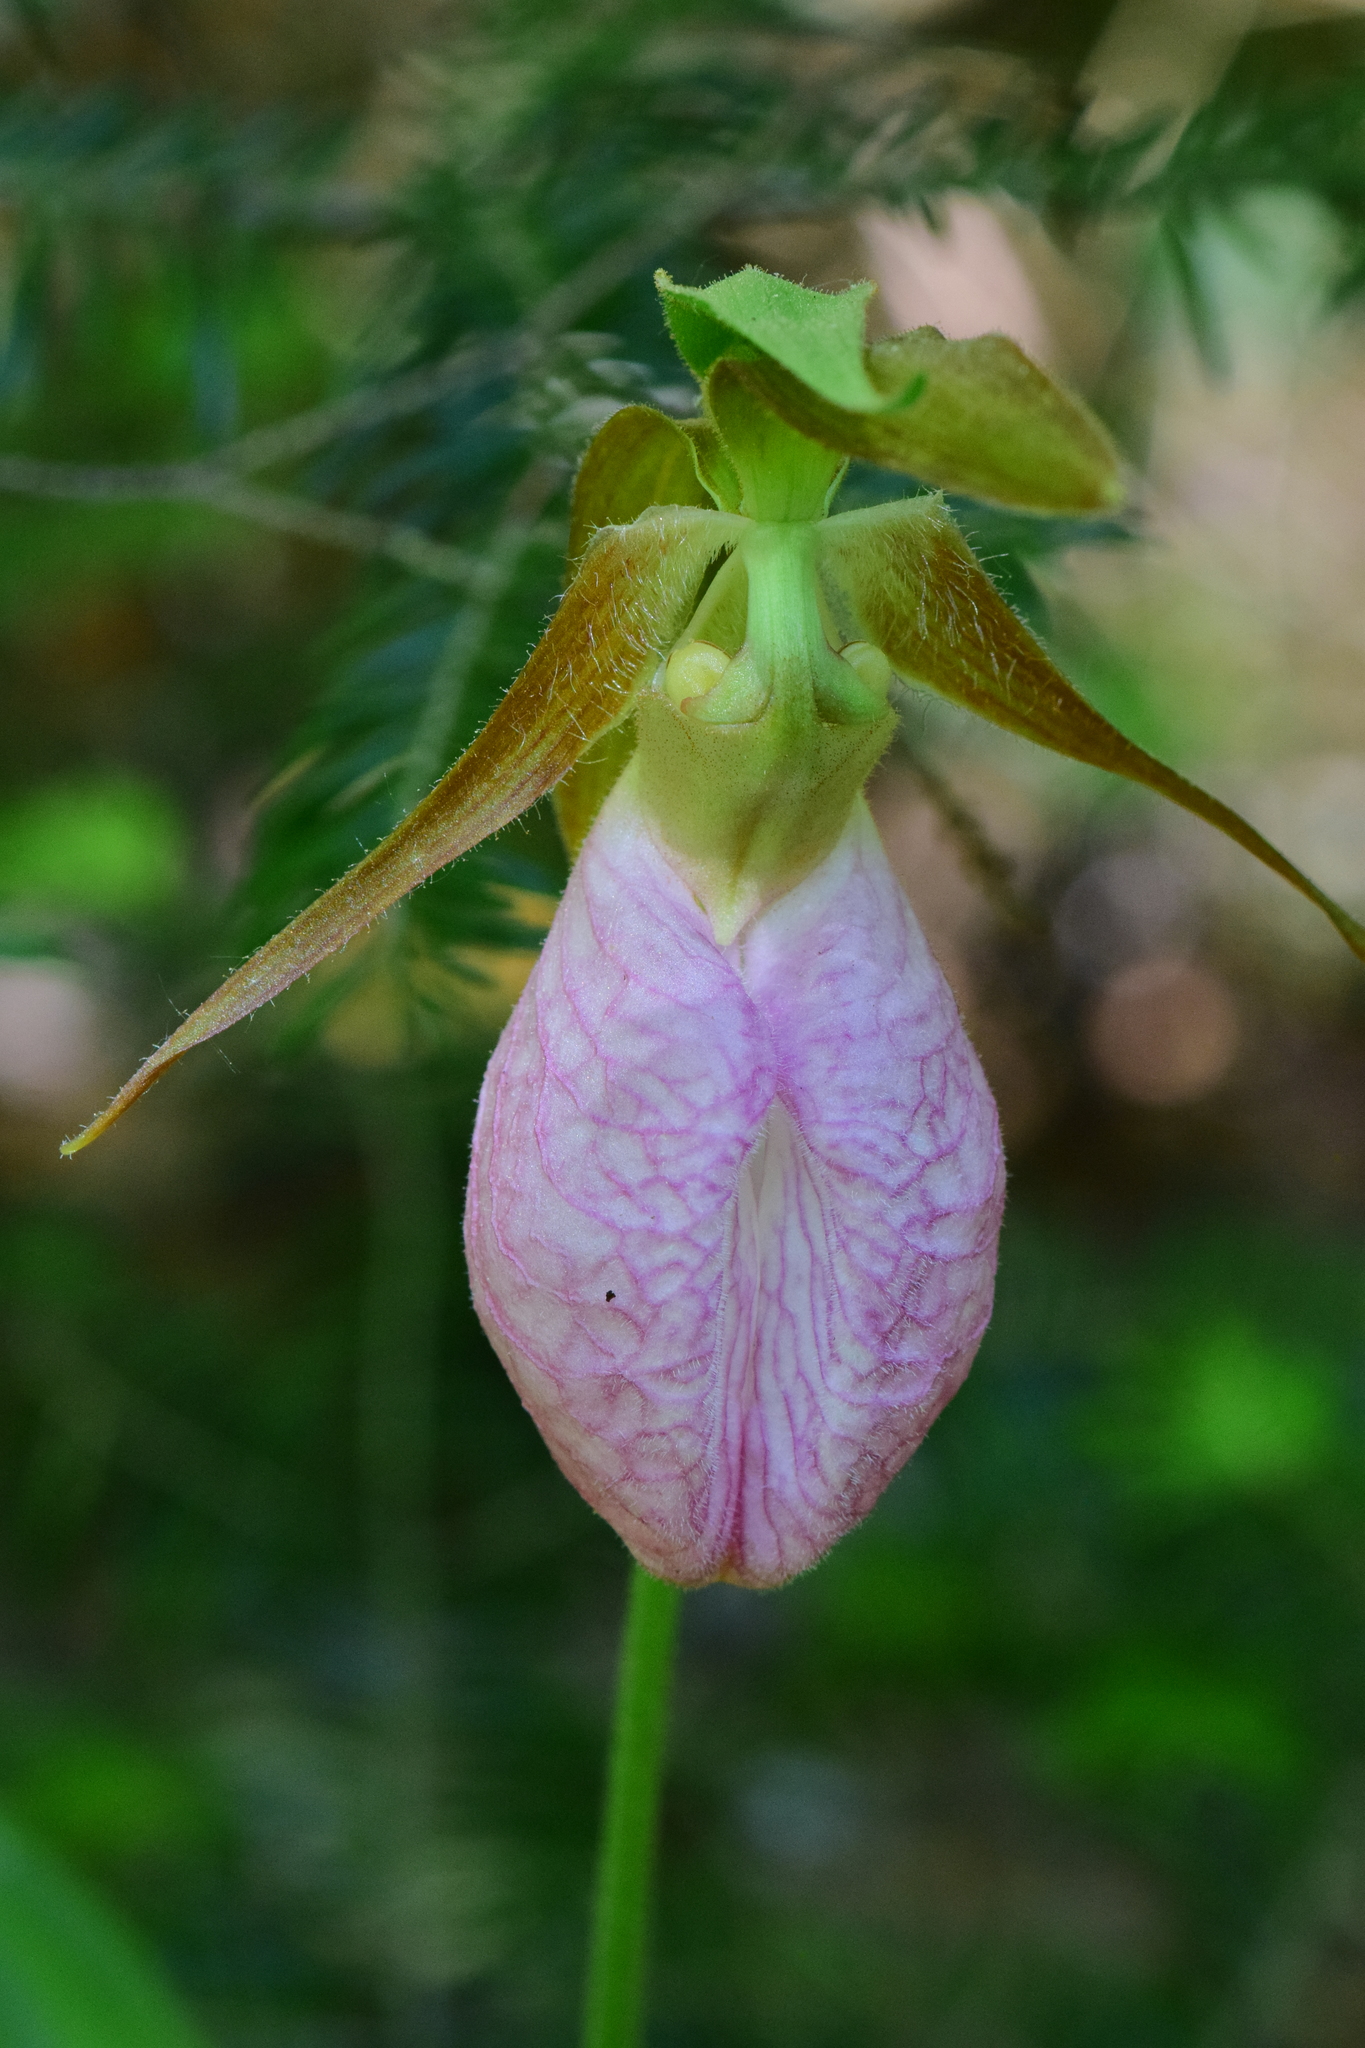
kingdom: Plantae
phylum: Tracheophyta
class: Liliopsida
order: Asparagales
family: Orchidaceae
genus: Cypripedium
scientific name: Cypripedium acaule
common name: Pink lady's-slipper
